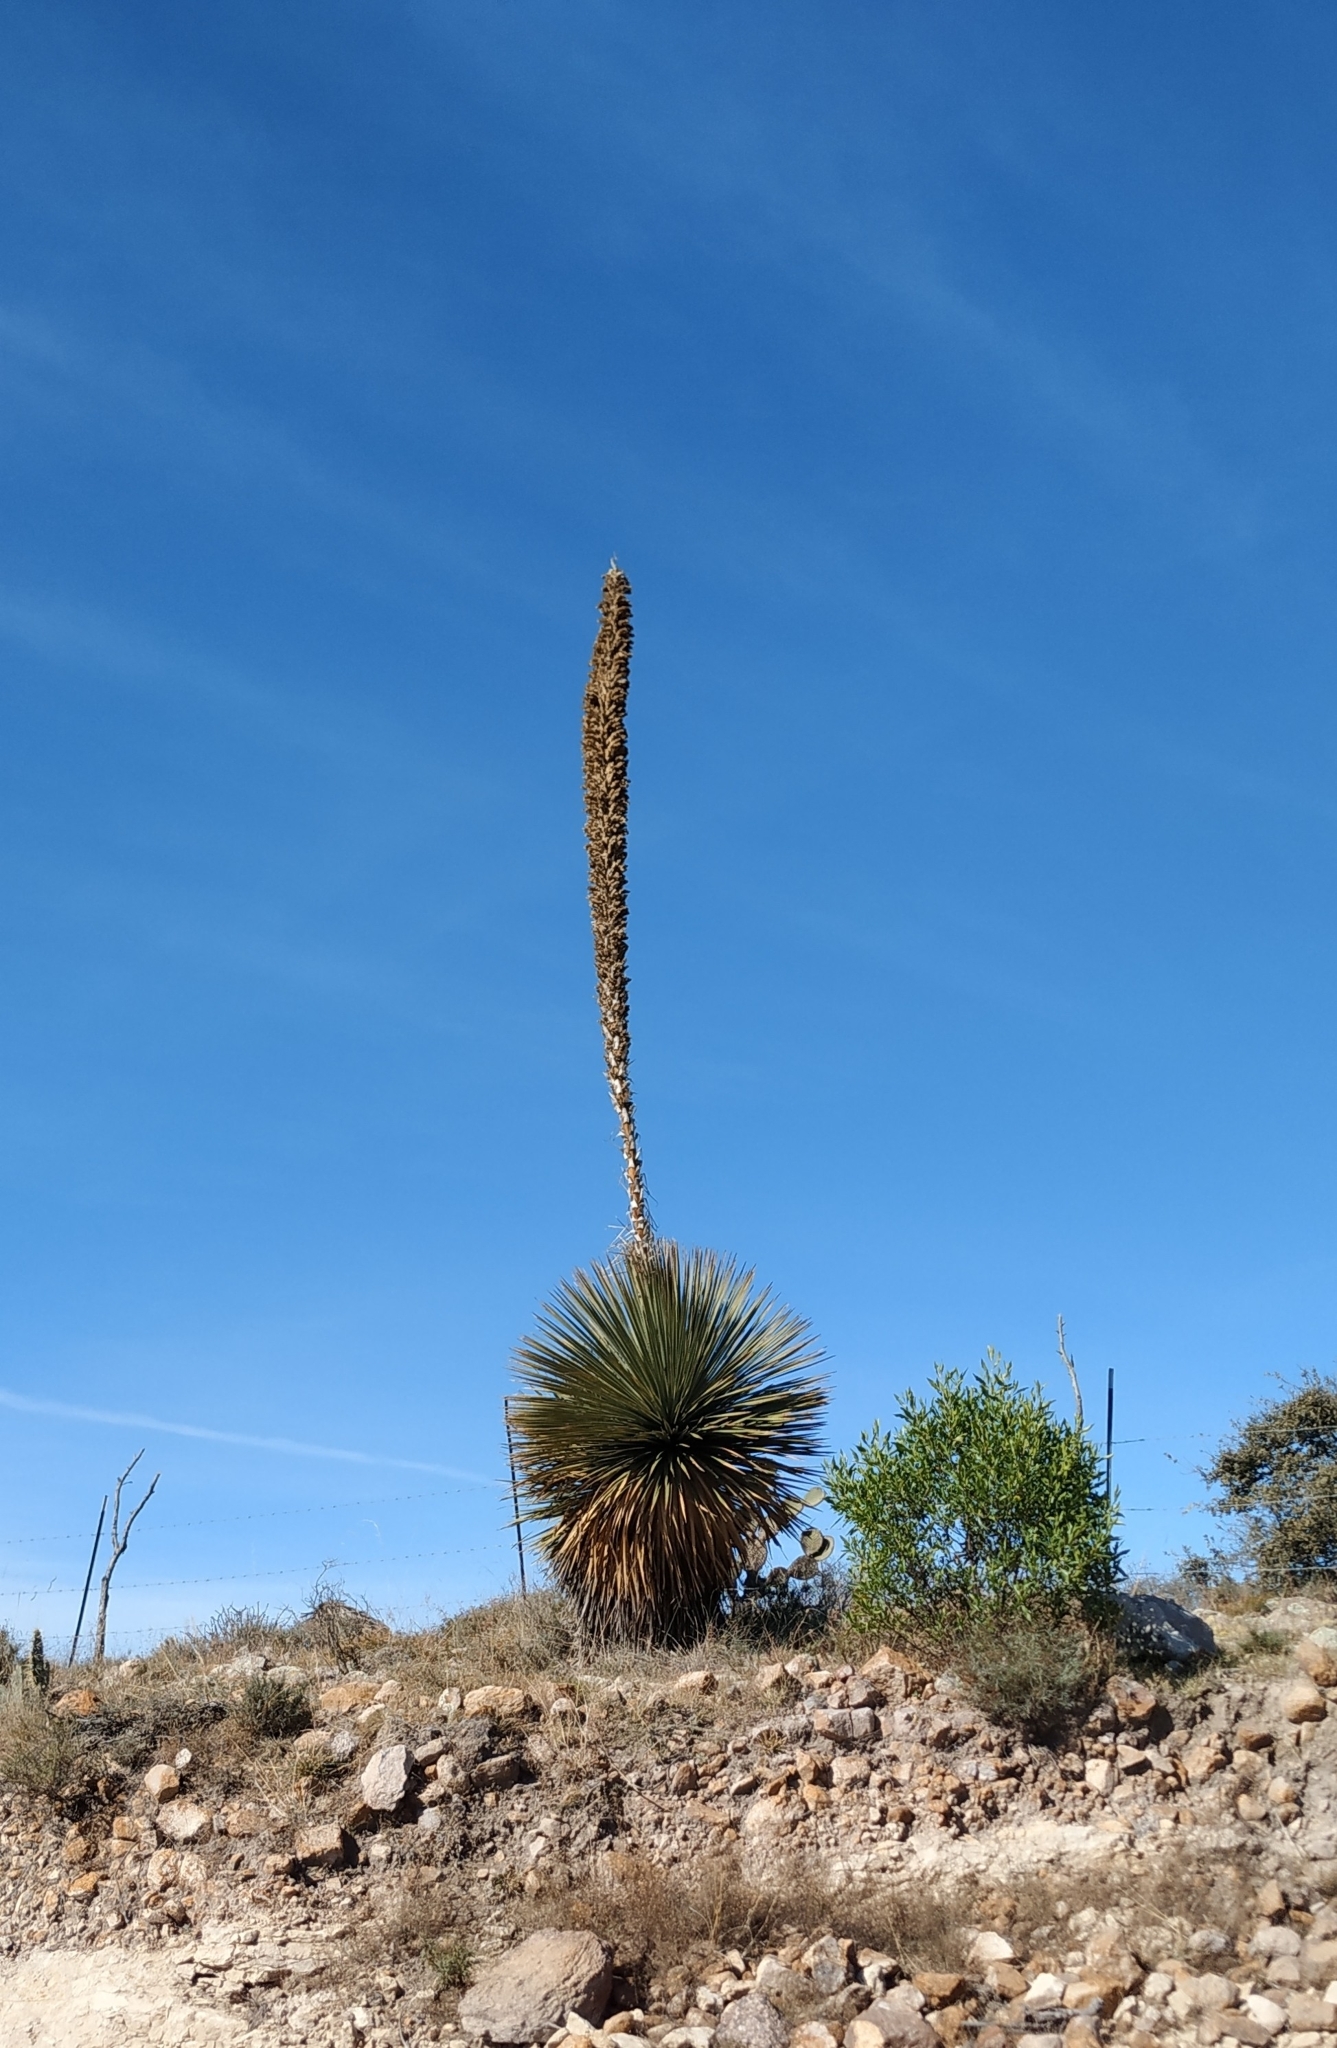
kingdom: Plantae
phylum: Tracheophyta
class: Liliopsida
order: Asparagales
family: Asparagaceae
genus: Dasylirion
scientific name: Dasylirion acrotrichum
